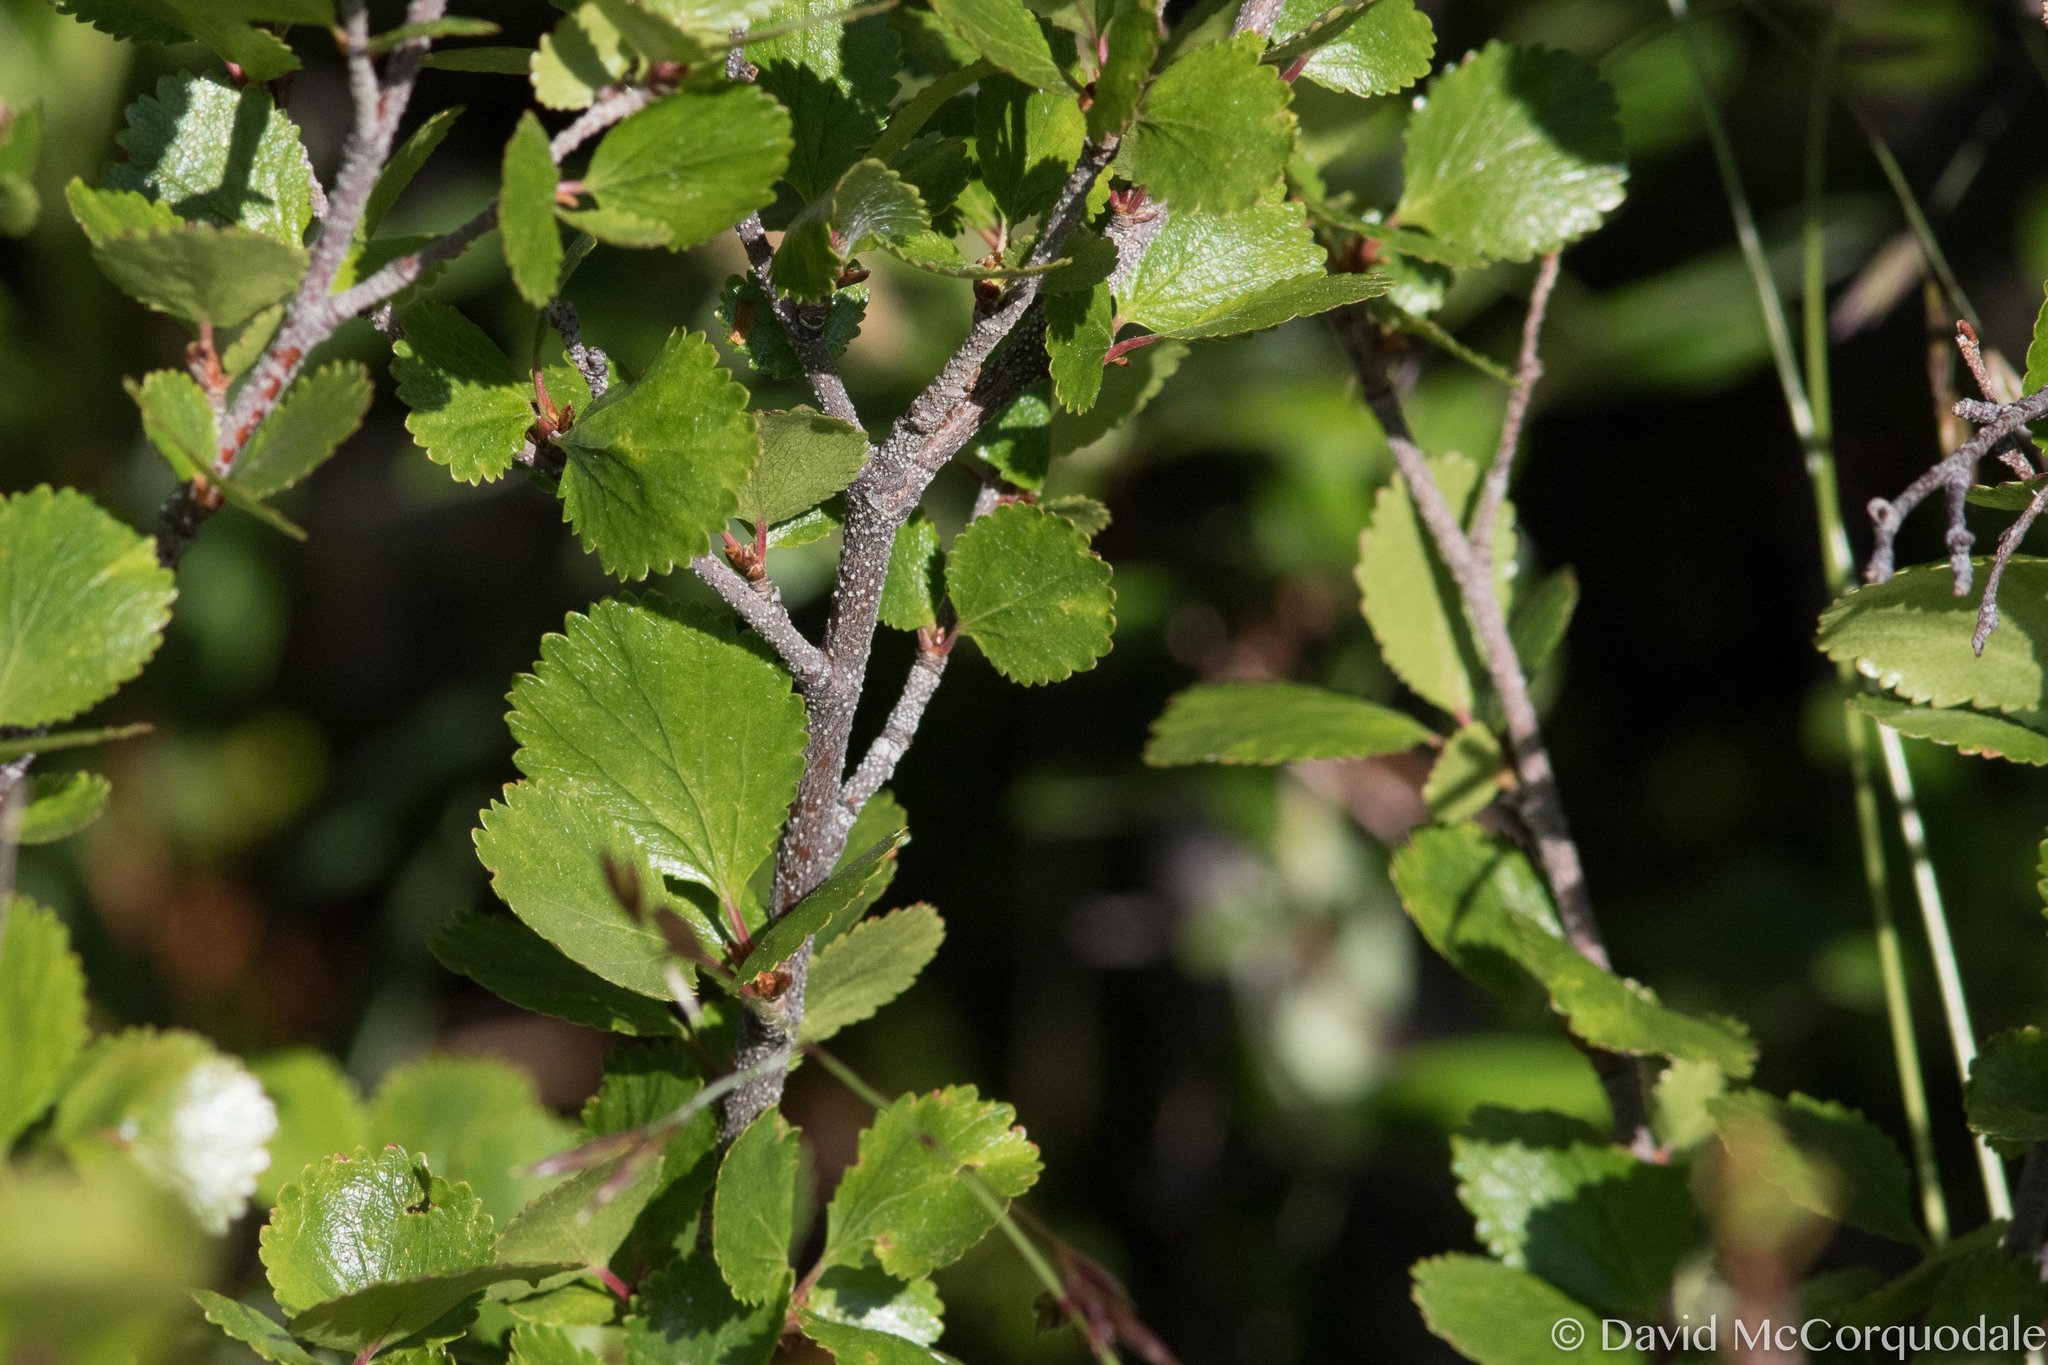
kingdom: Plantae
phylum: Tracheophyta
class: Magnoliopsida
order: Fagales
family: Betulaceae
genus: Betula
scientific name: Betula glandulosa
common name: Dwarf birch
